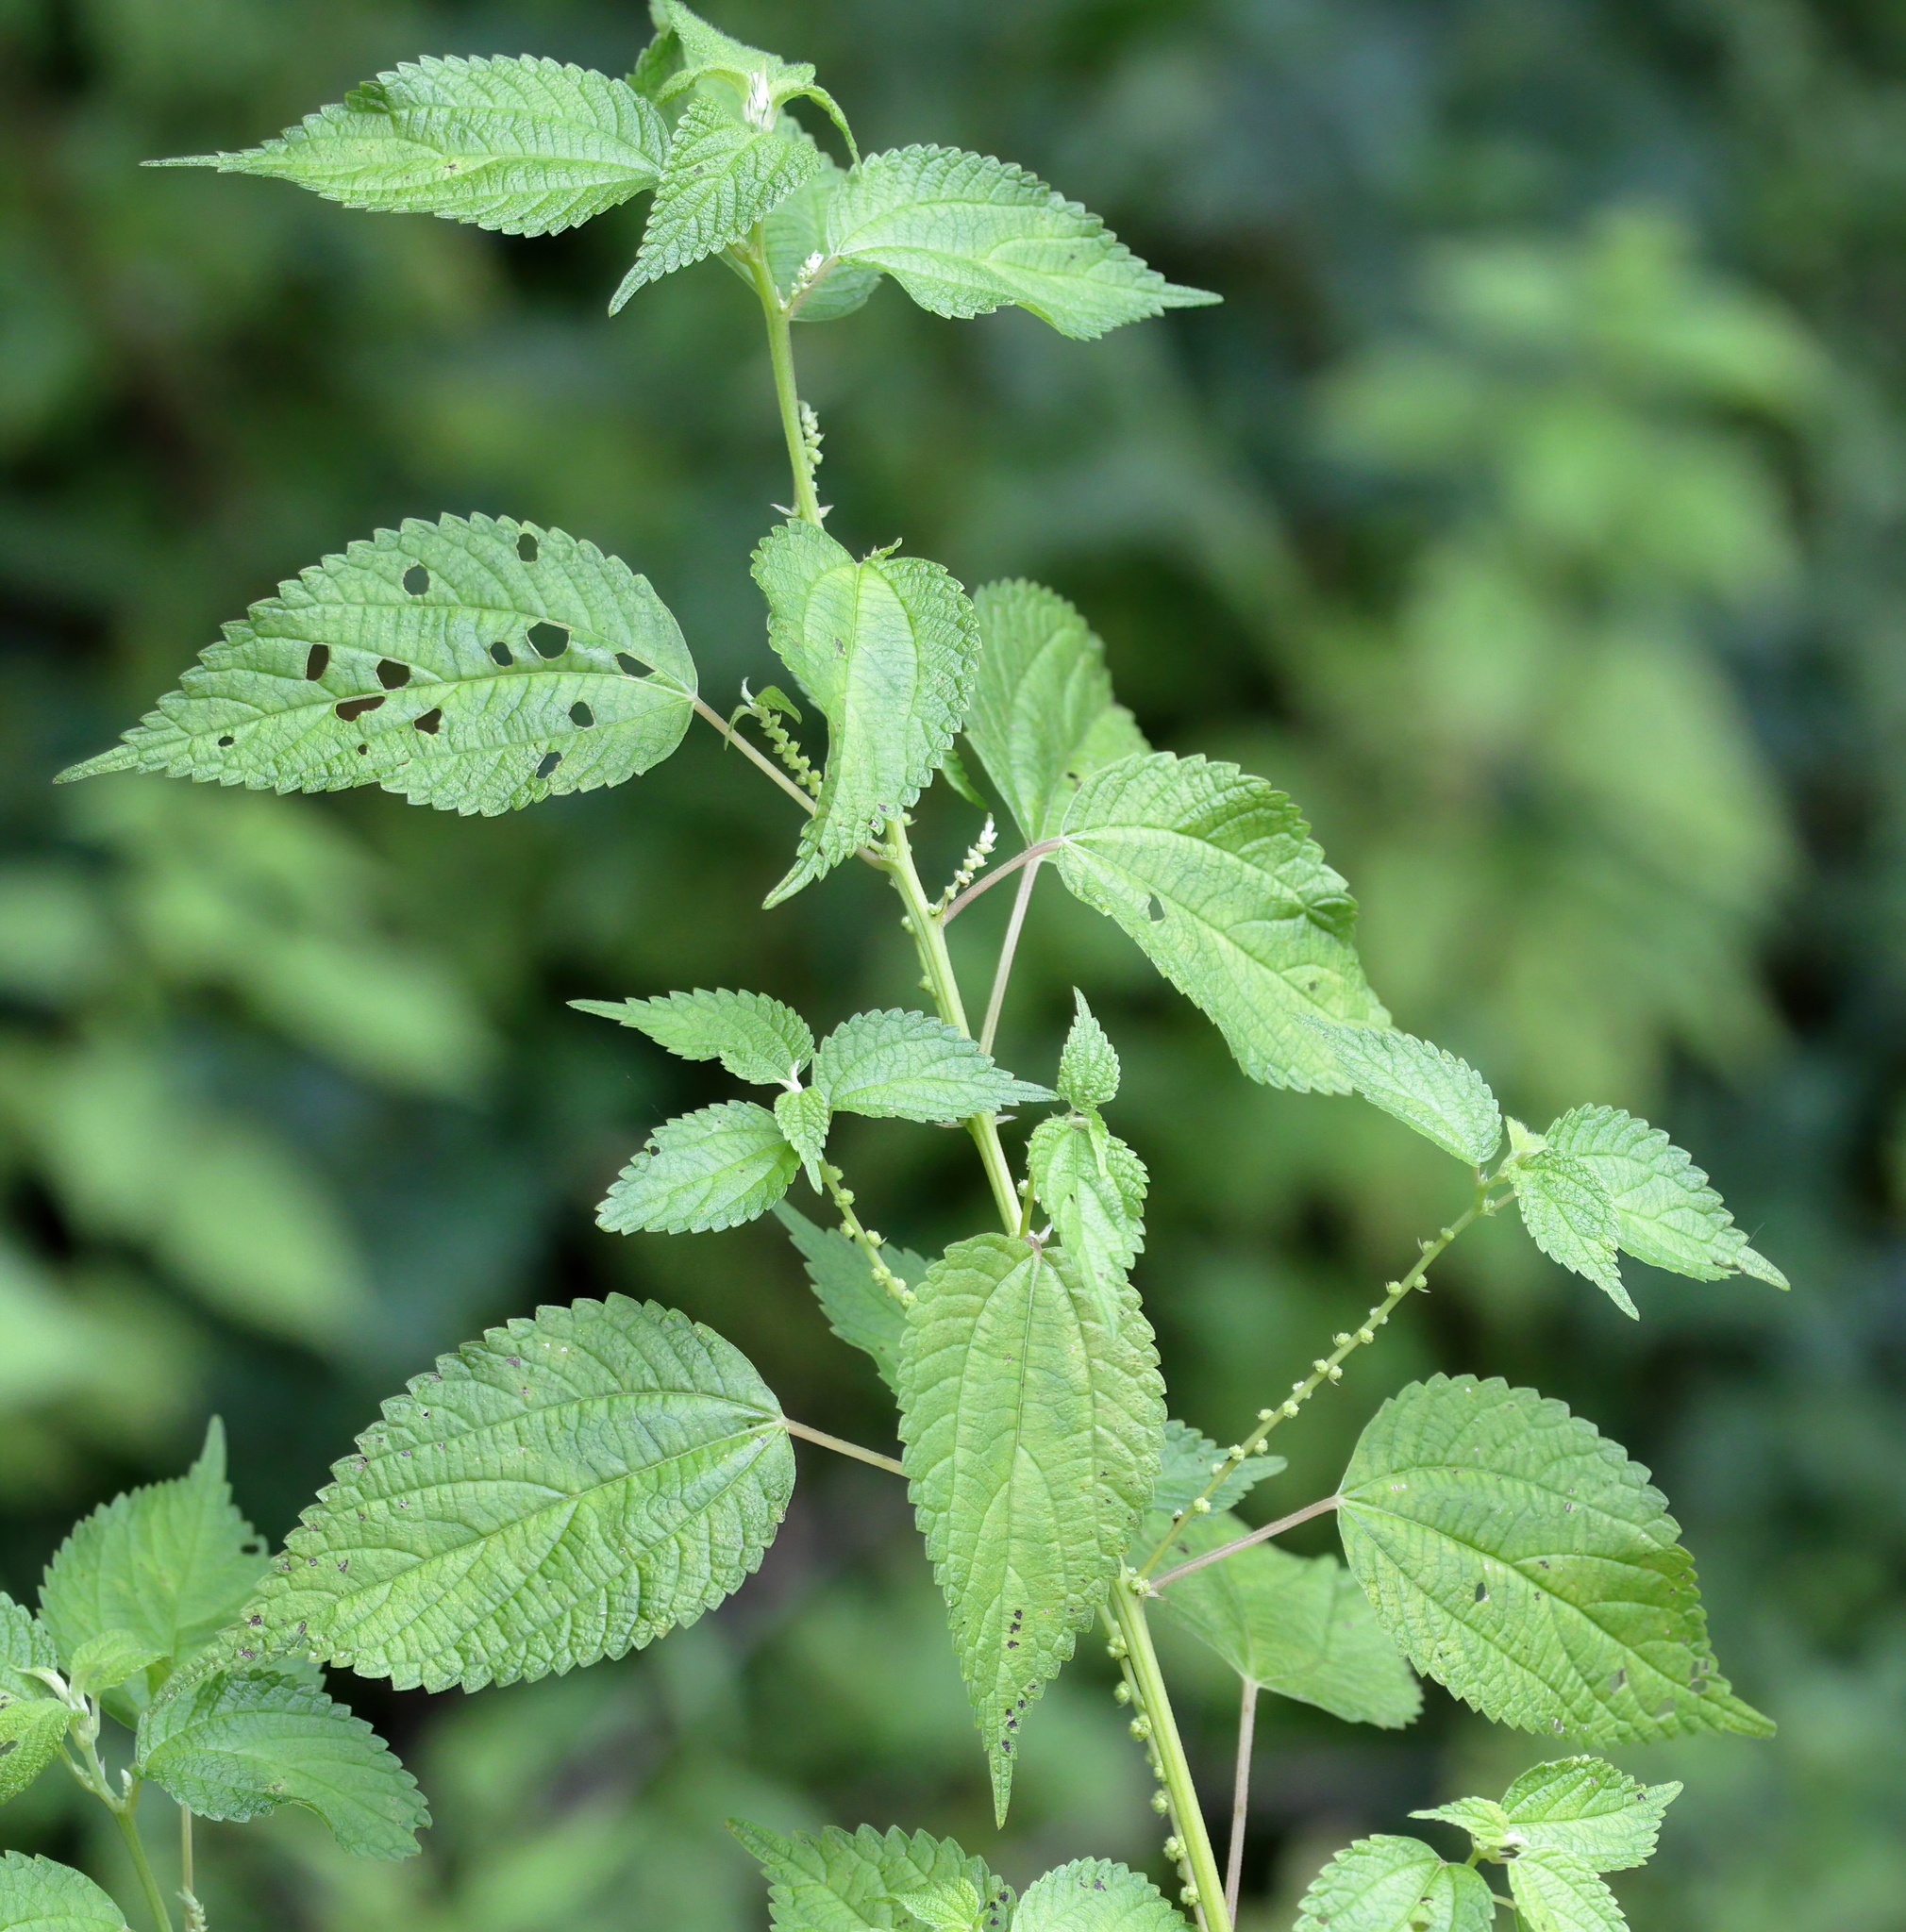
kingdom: Plantae
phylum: Tracheophyta
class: Magnoliopsida
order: Rosales
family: Urticaceae
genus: Boehmeria
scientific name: Boehmeria cylindrica
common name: Bog-hemp
